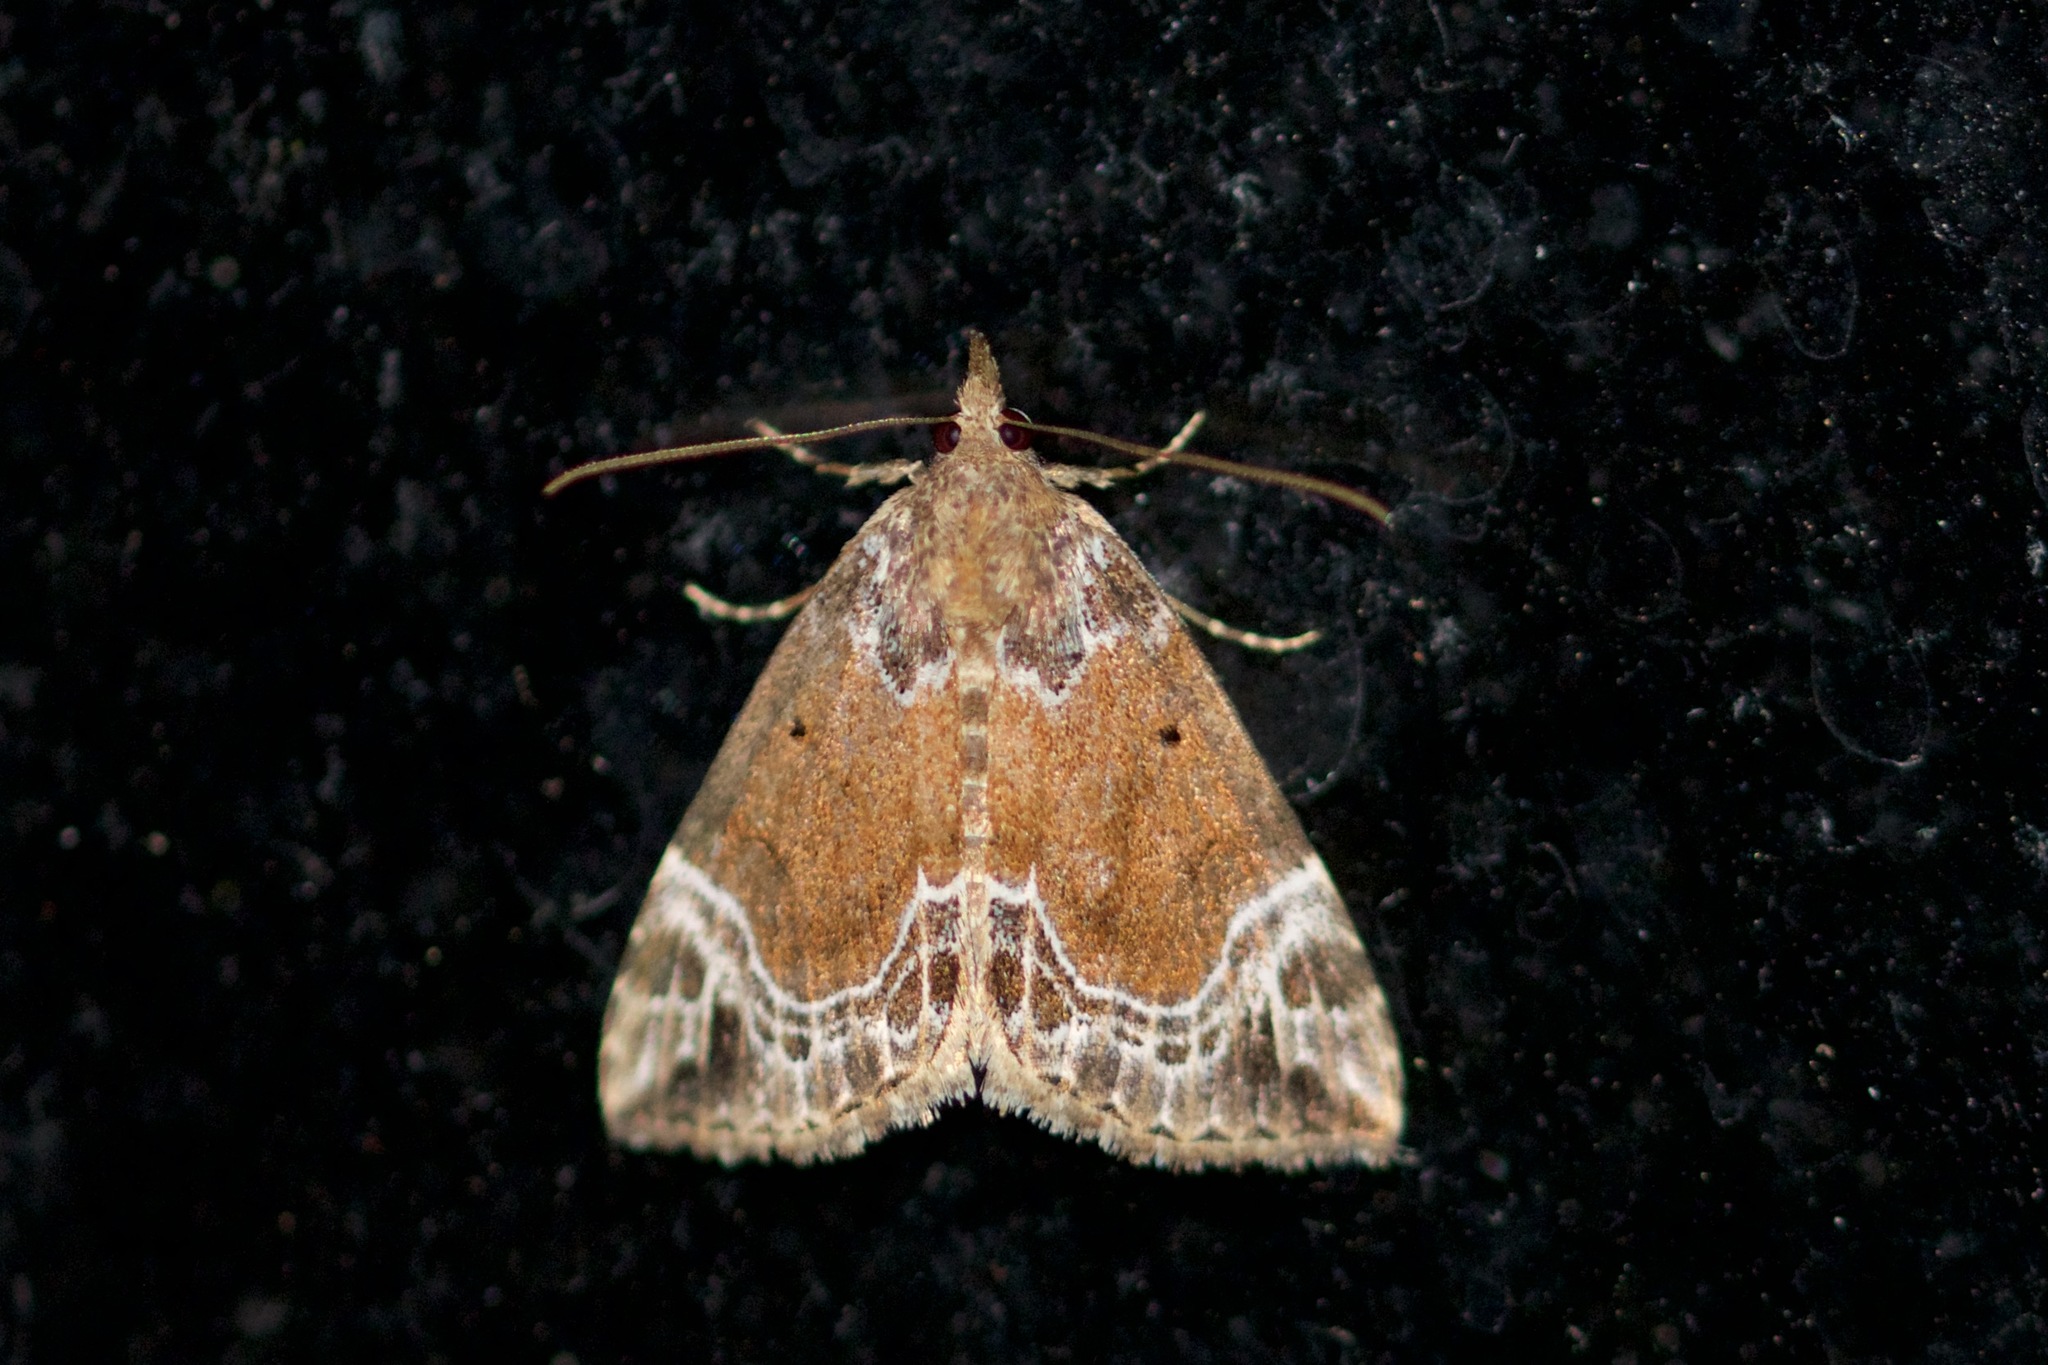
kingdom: Animalia
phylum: Arthropoda
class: Insecta
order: Lepidoptera
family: Erebidae
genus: Hypena
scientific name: Hypena abalienalis
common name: White-lined snout
